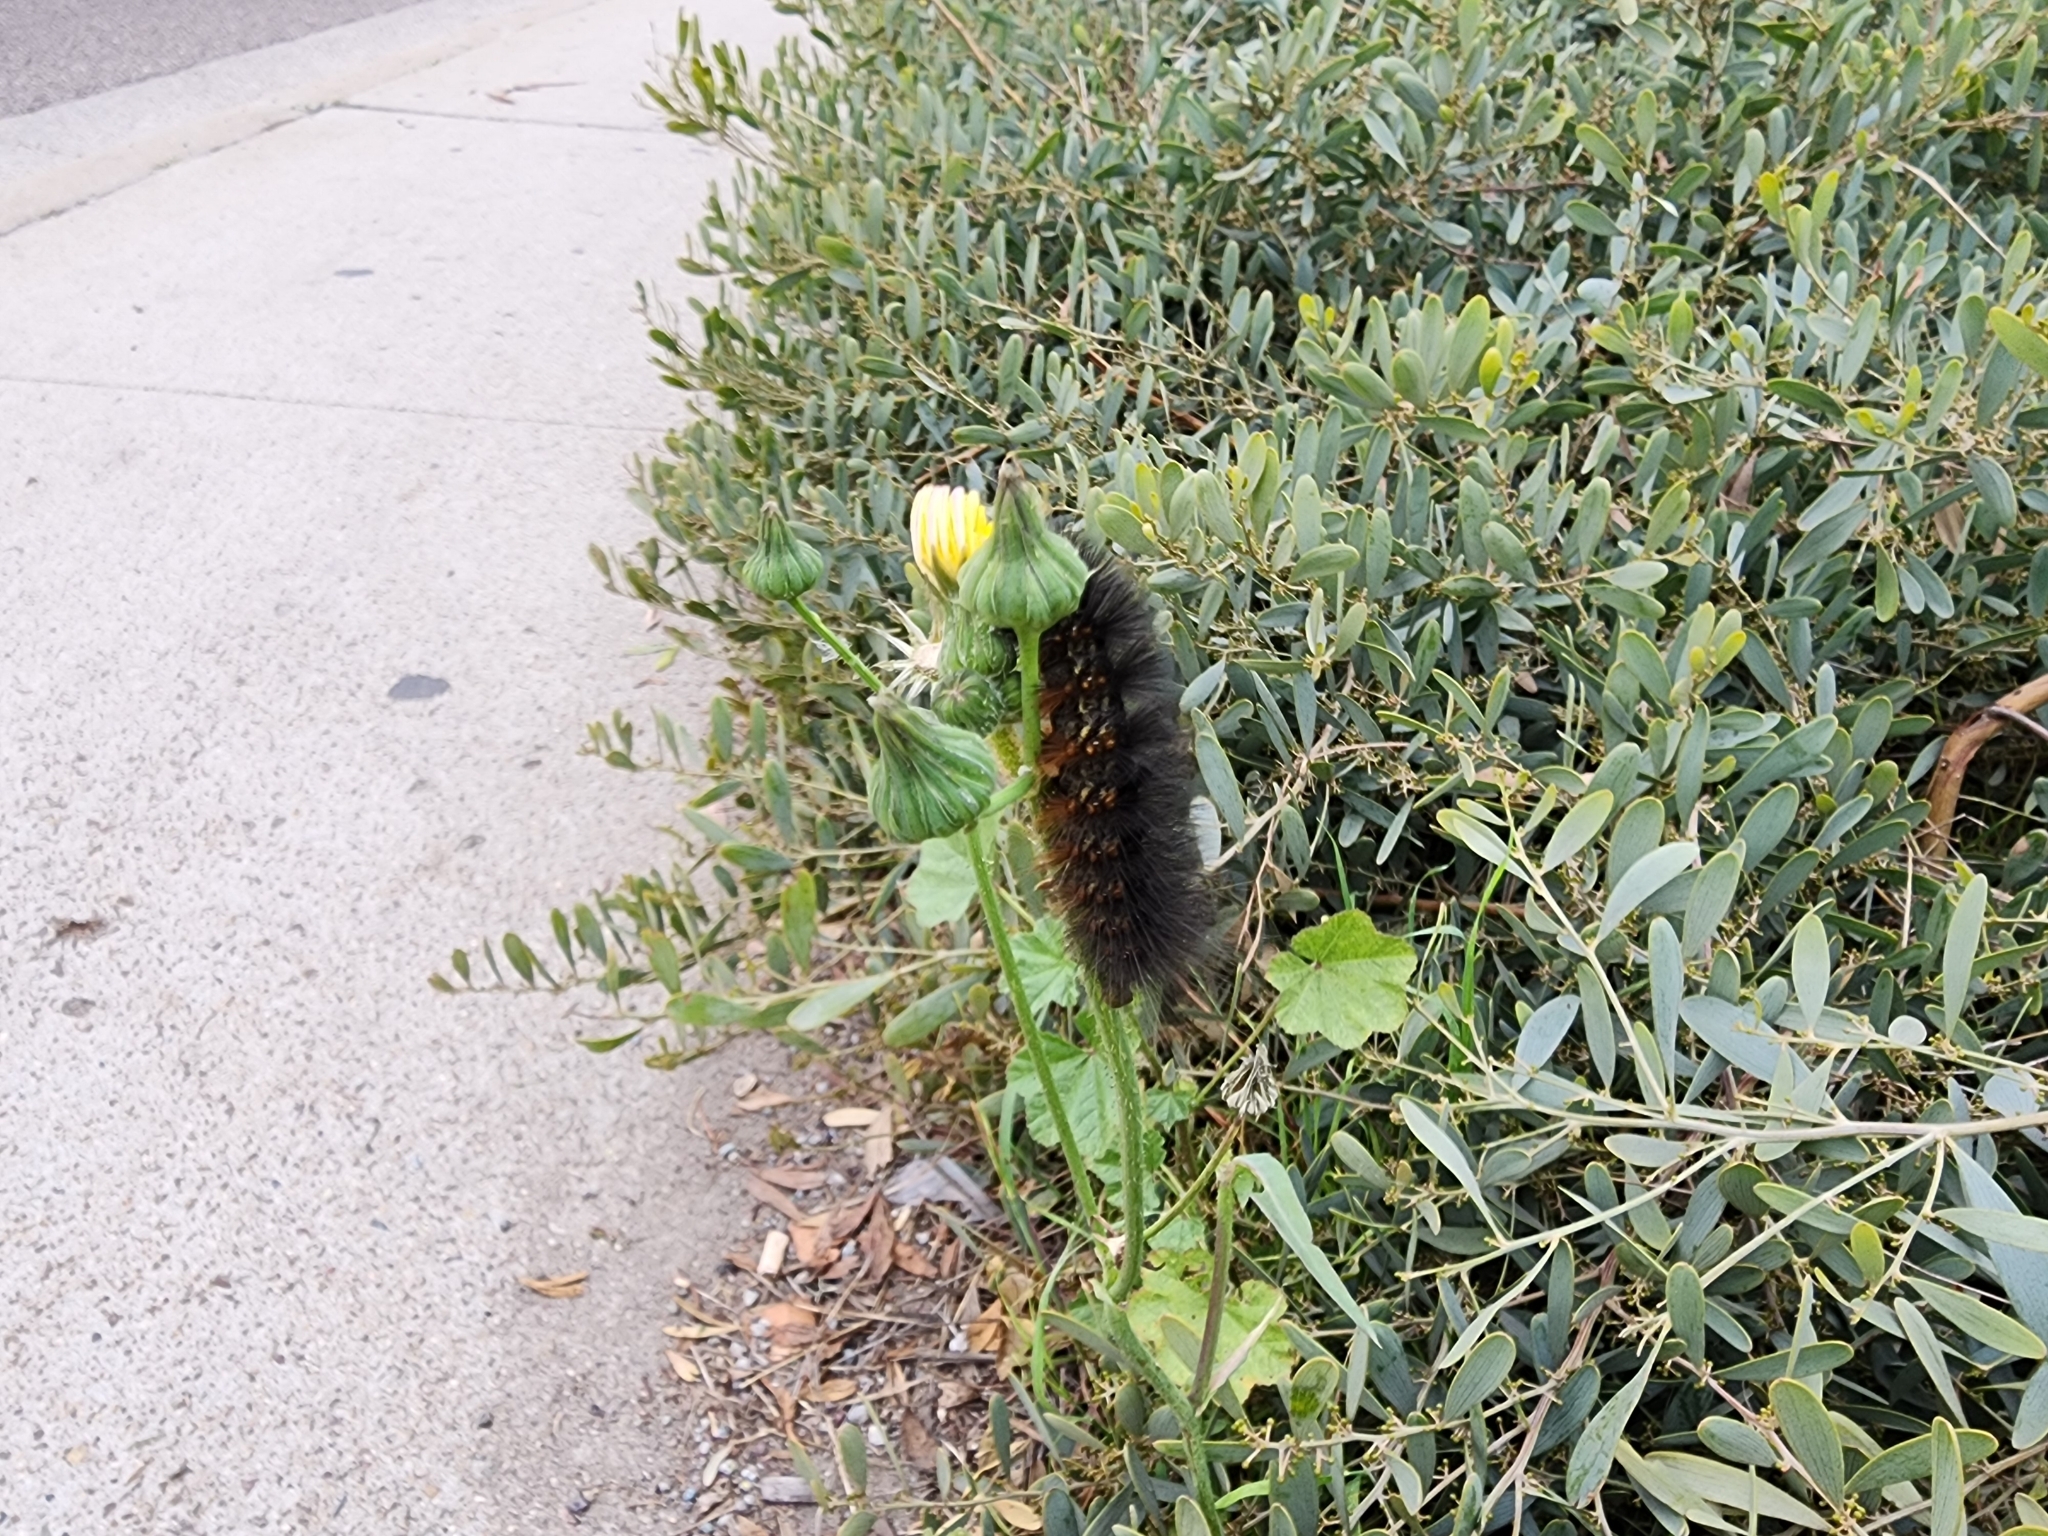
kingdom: Animalia
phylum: Arthropoda
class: Insecta
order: Lepidoptera
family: Erebidae
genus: Estigmene
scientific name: Estigmene acrea
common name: Salt marsh moth
